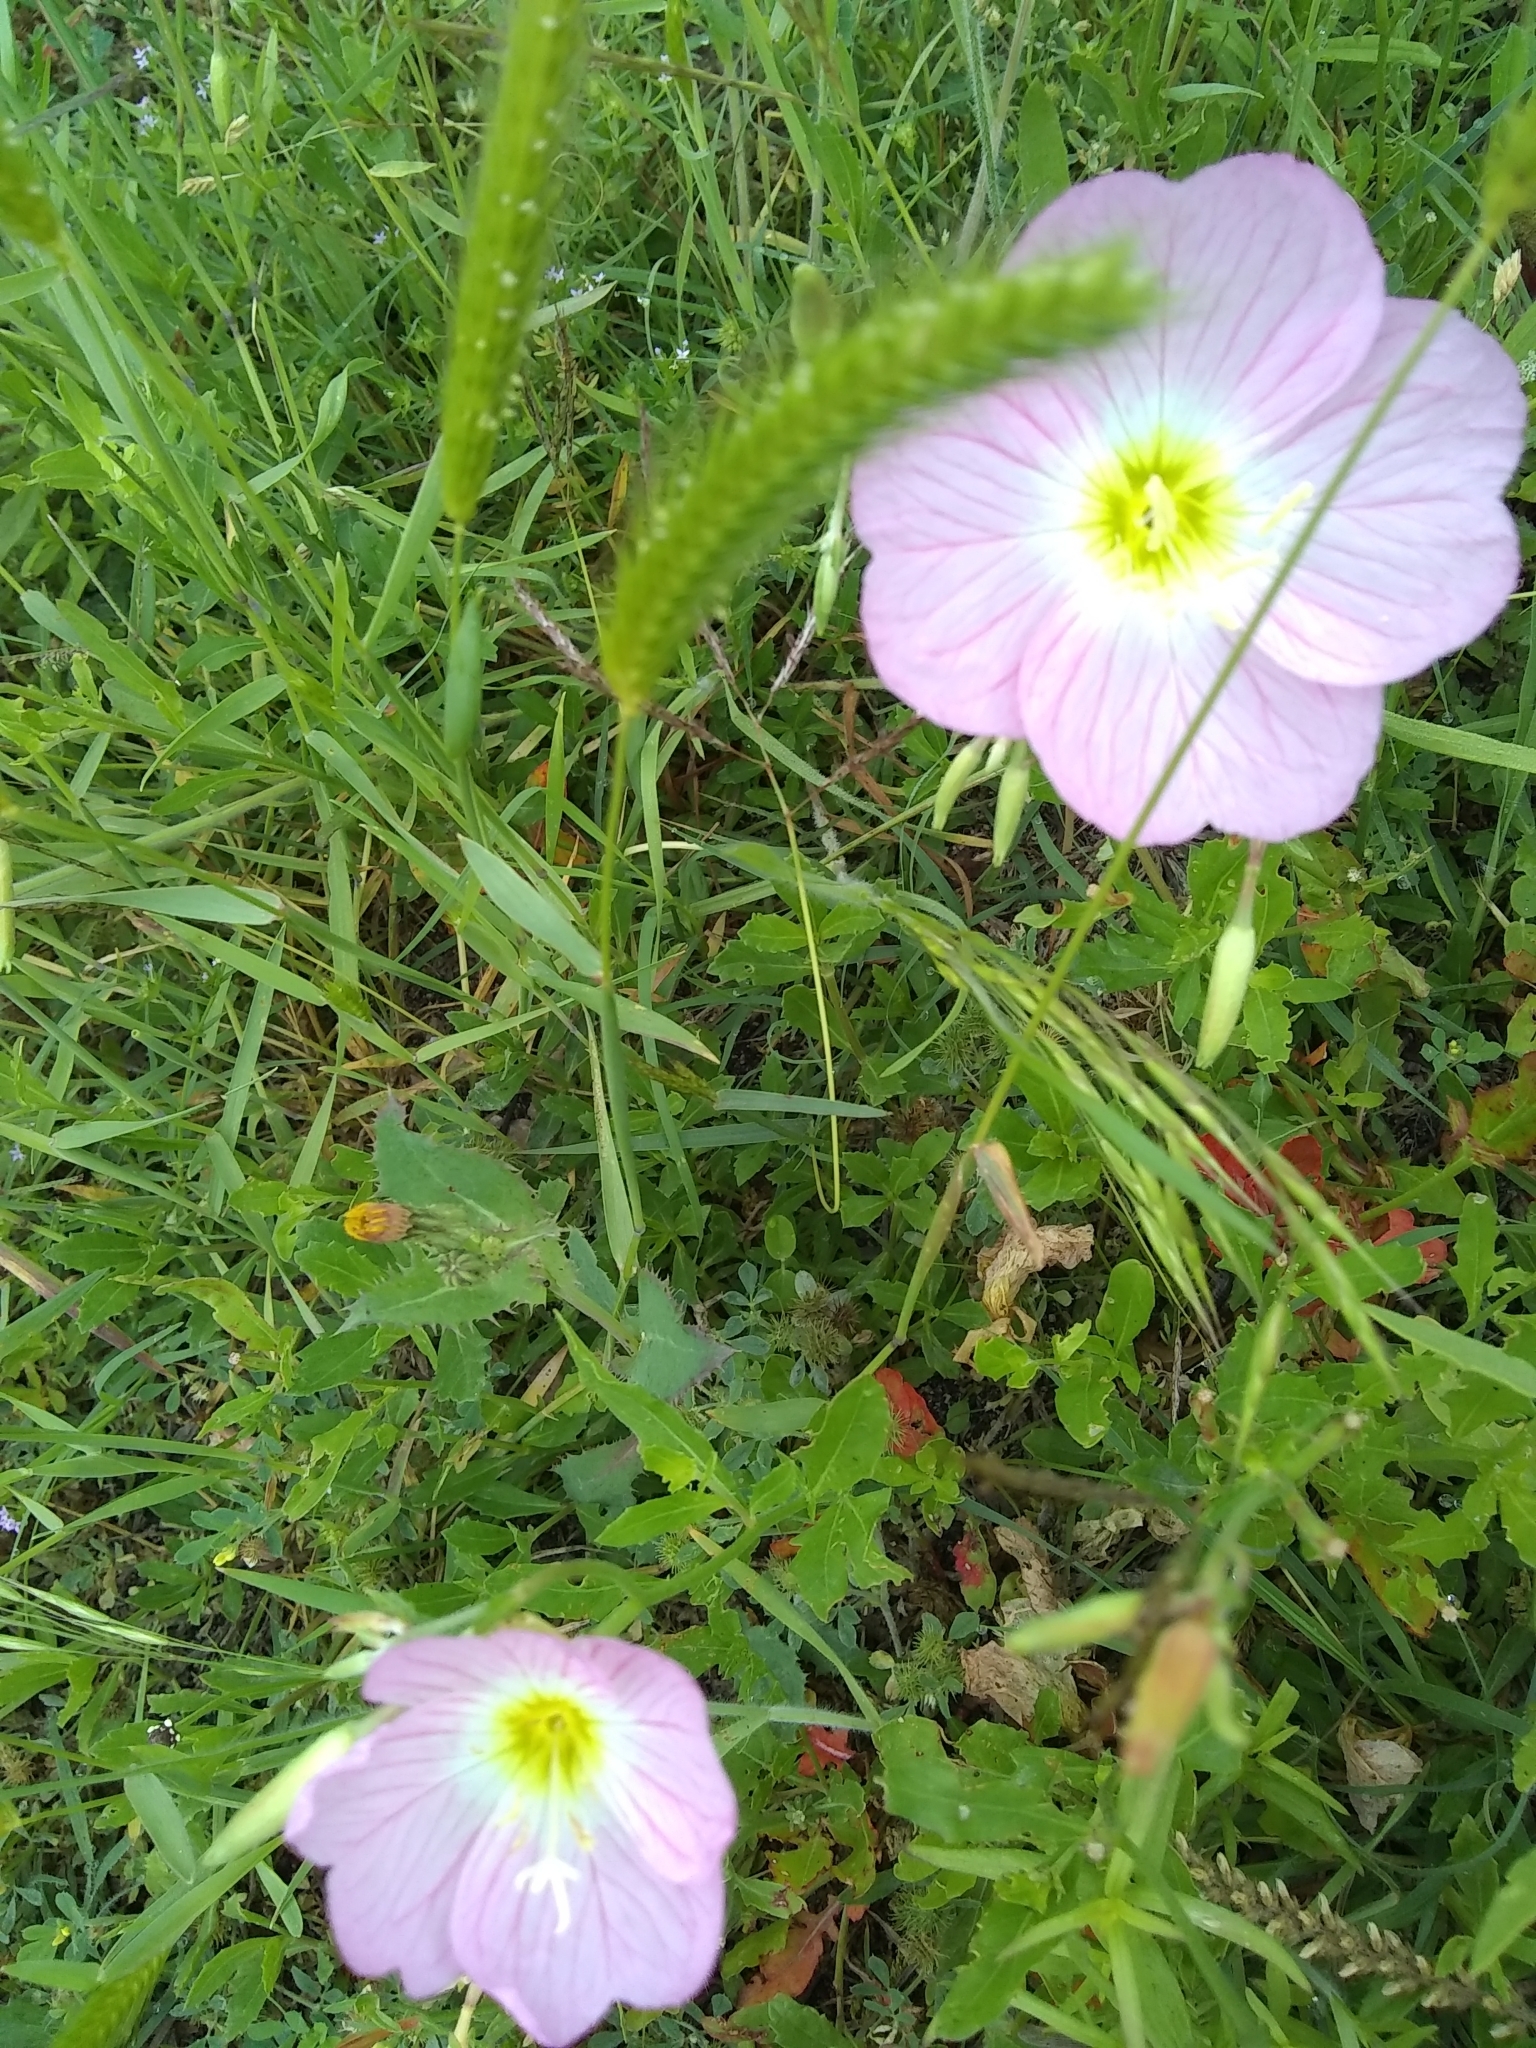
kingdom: Plantae
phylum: Tracheophyta
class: Magnoliopsida
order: Myrtales
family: Onagraceae
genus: Oenothera
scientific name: Oenothera speciosa
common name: White evening-primrose
